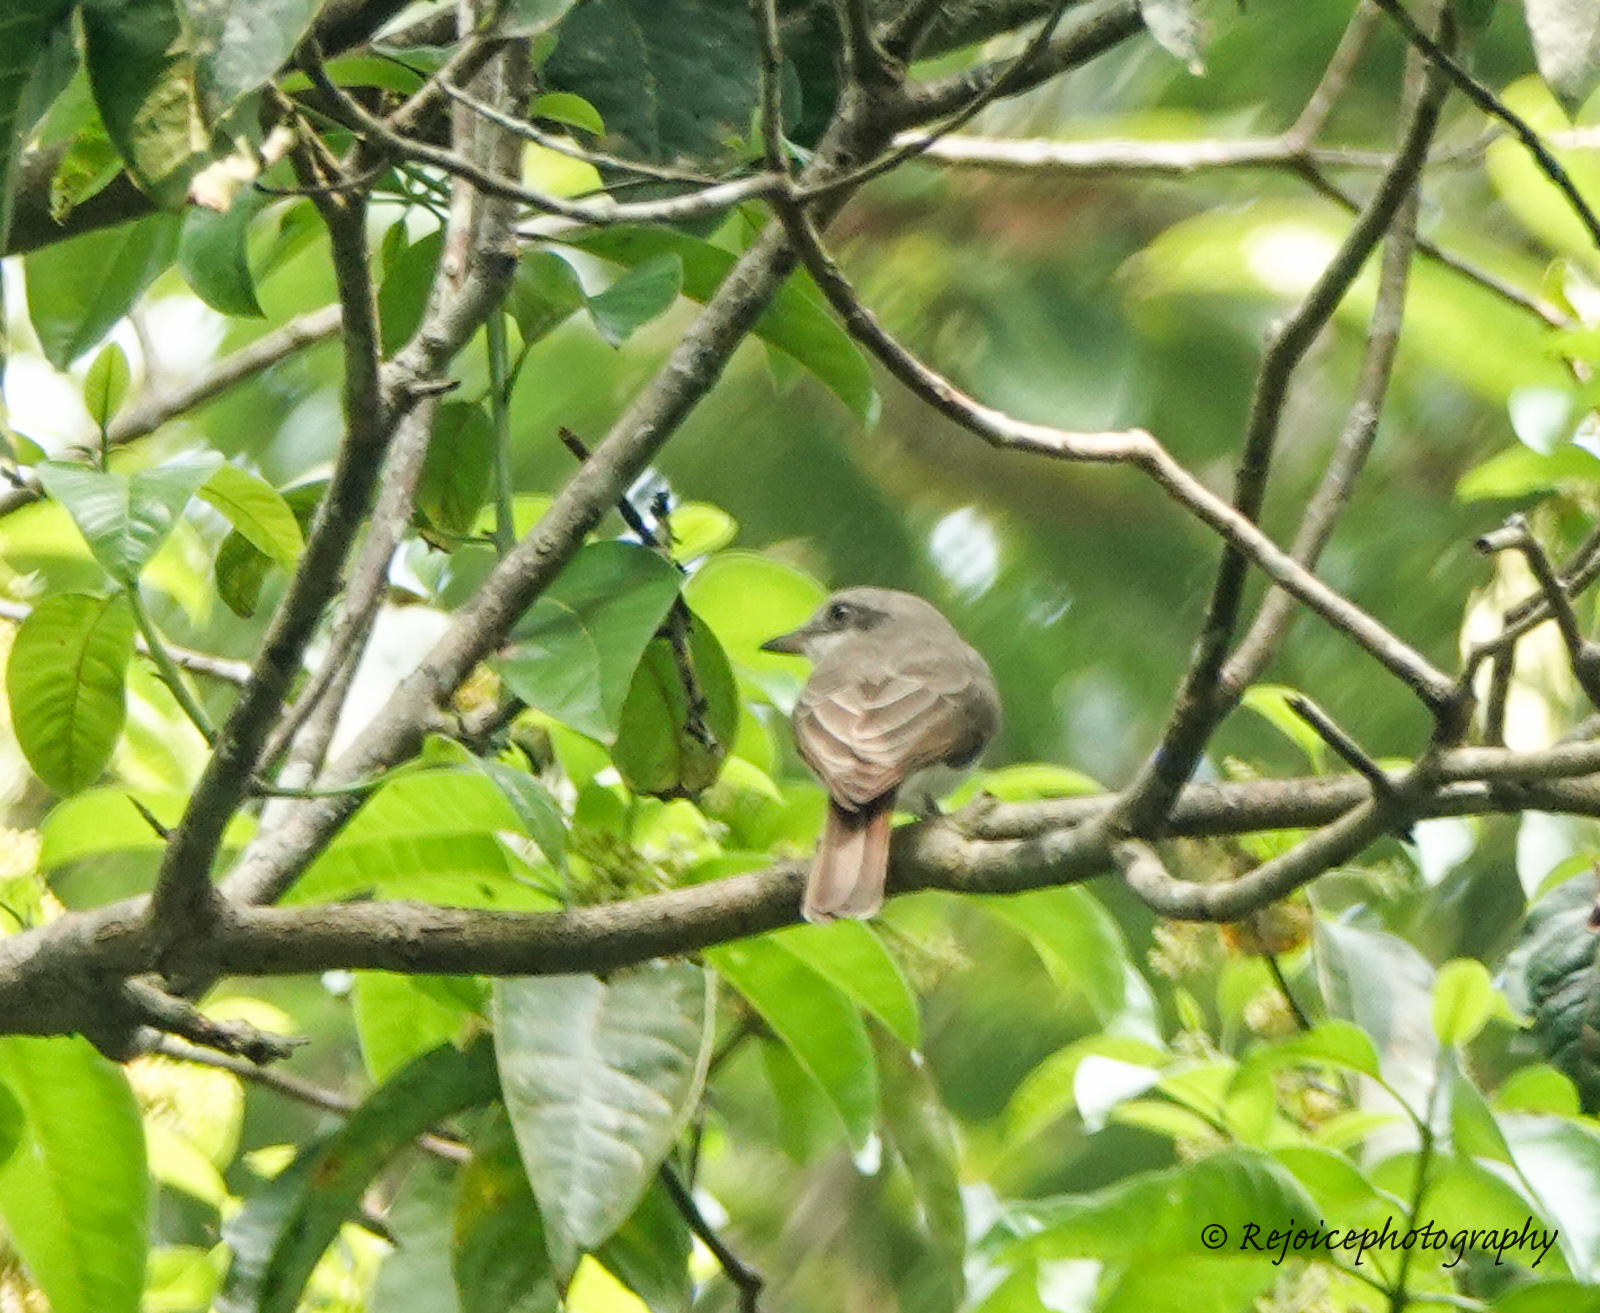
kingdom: Animalia
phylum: Chordata
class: Aves
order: Passeriformes
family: Campephagidae
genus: Coracina
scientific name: Coracina macei
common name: Large cuckooshrike
